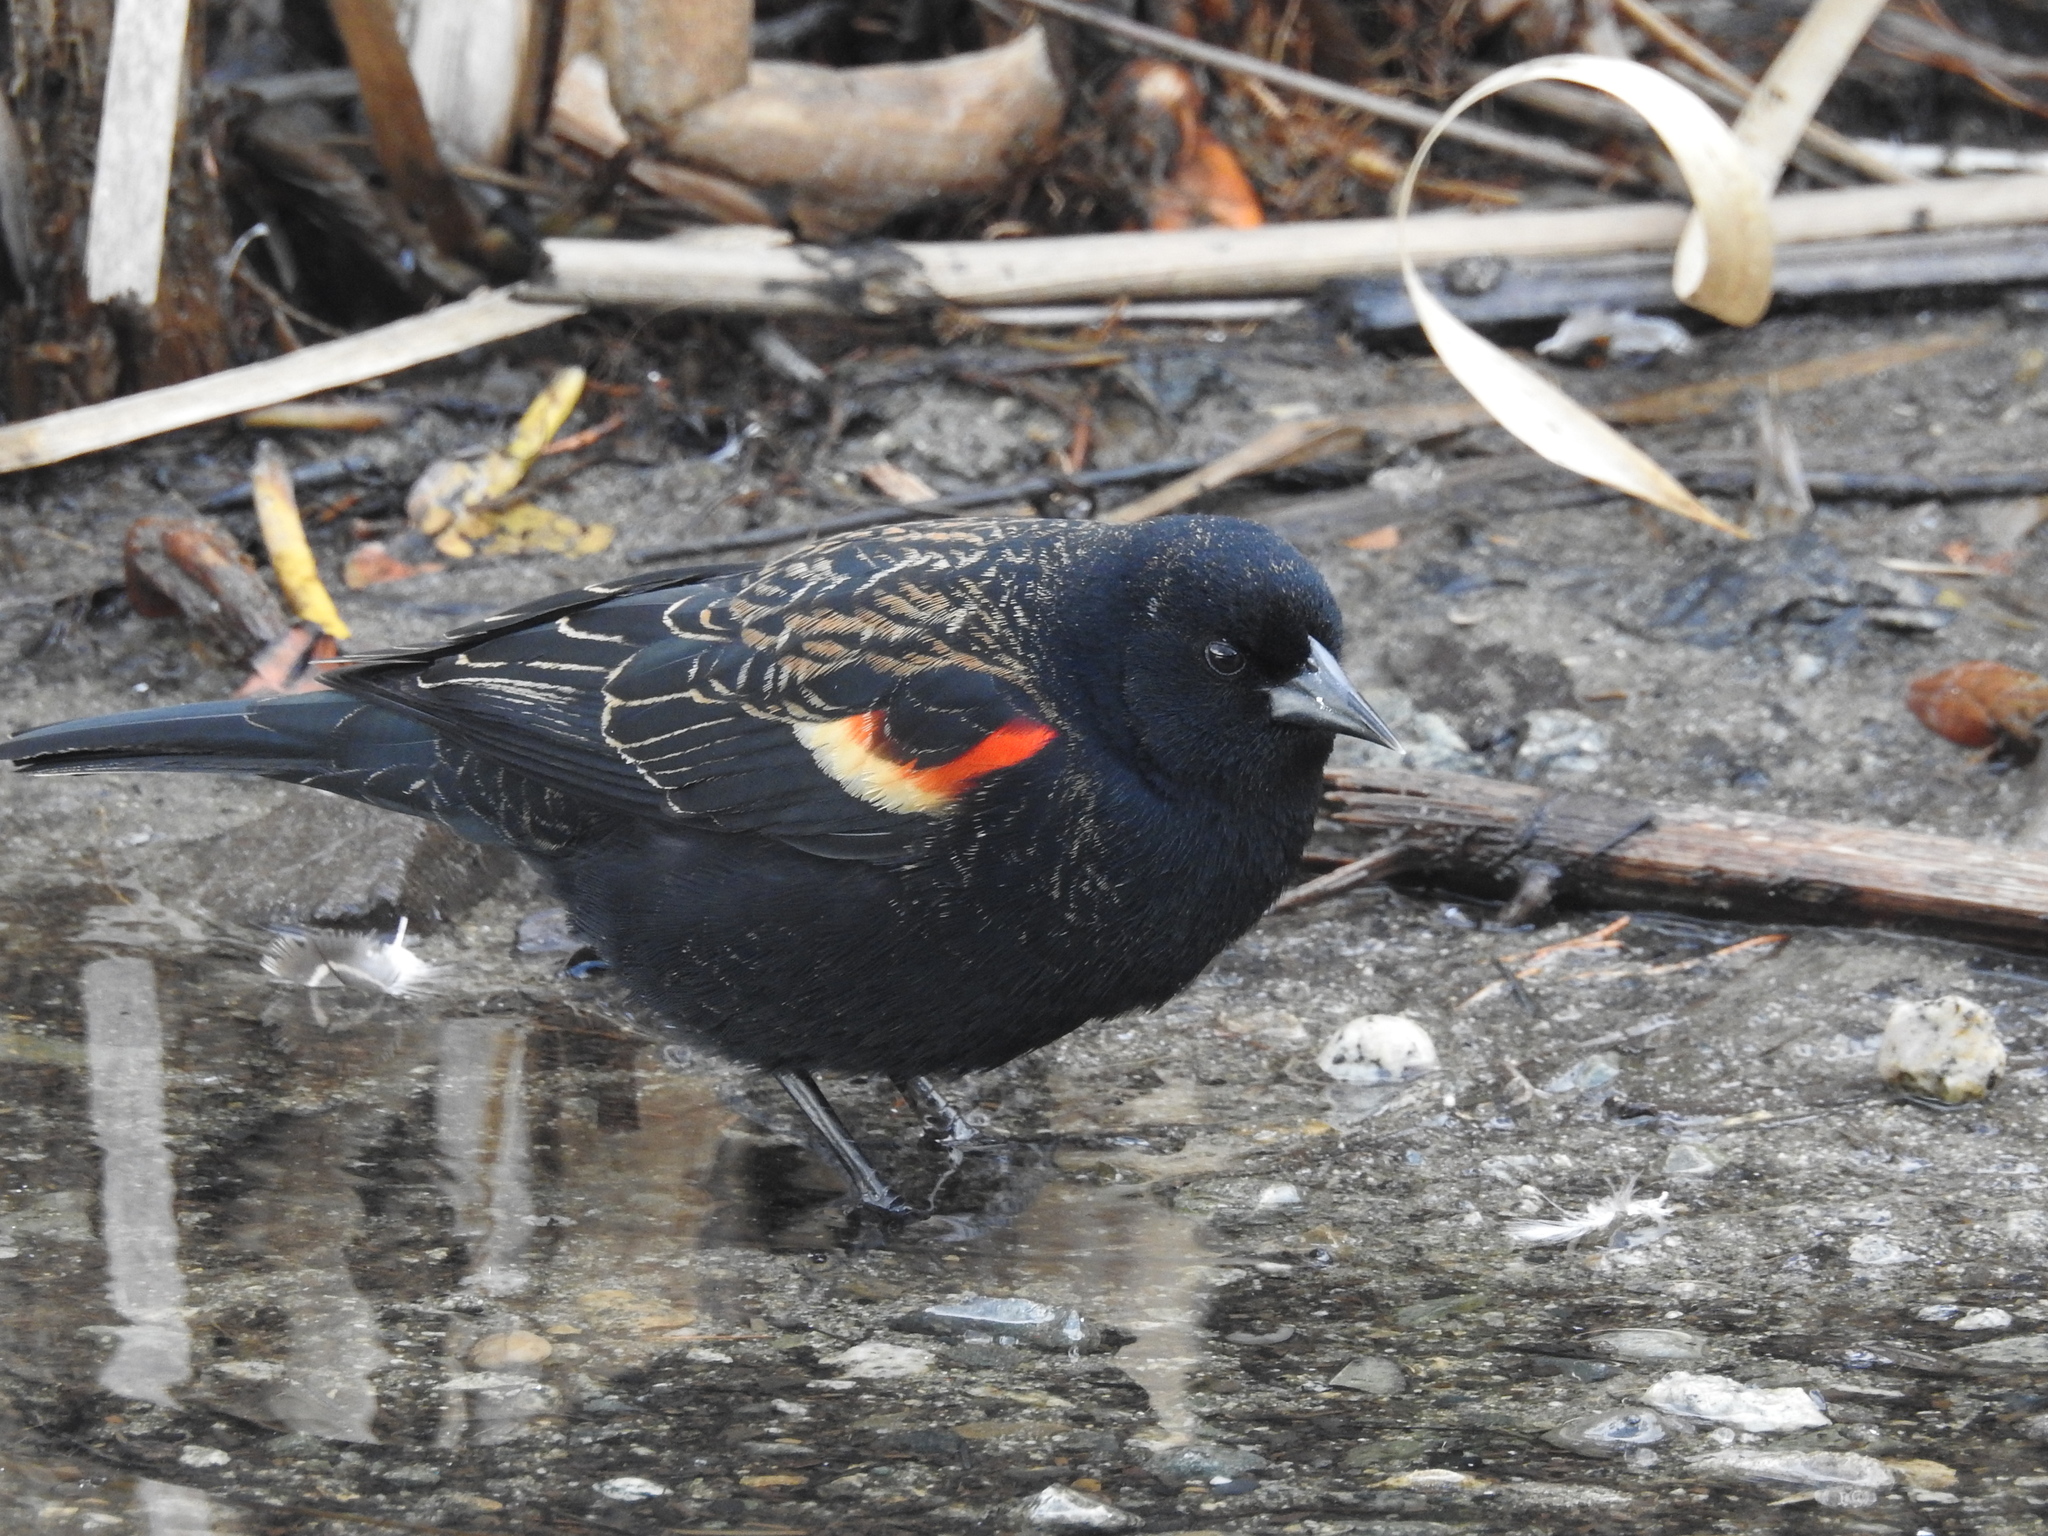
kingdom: Animalia
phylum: Chordata
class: Aves
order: Passeriformes
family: Icteridae
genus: Agelaius
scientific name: Agelaius phoeniceus
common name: Red-winged blackbird
